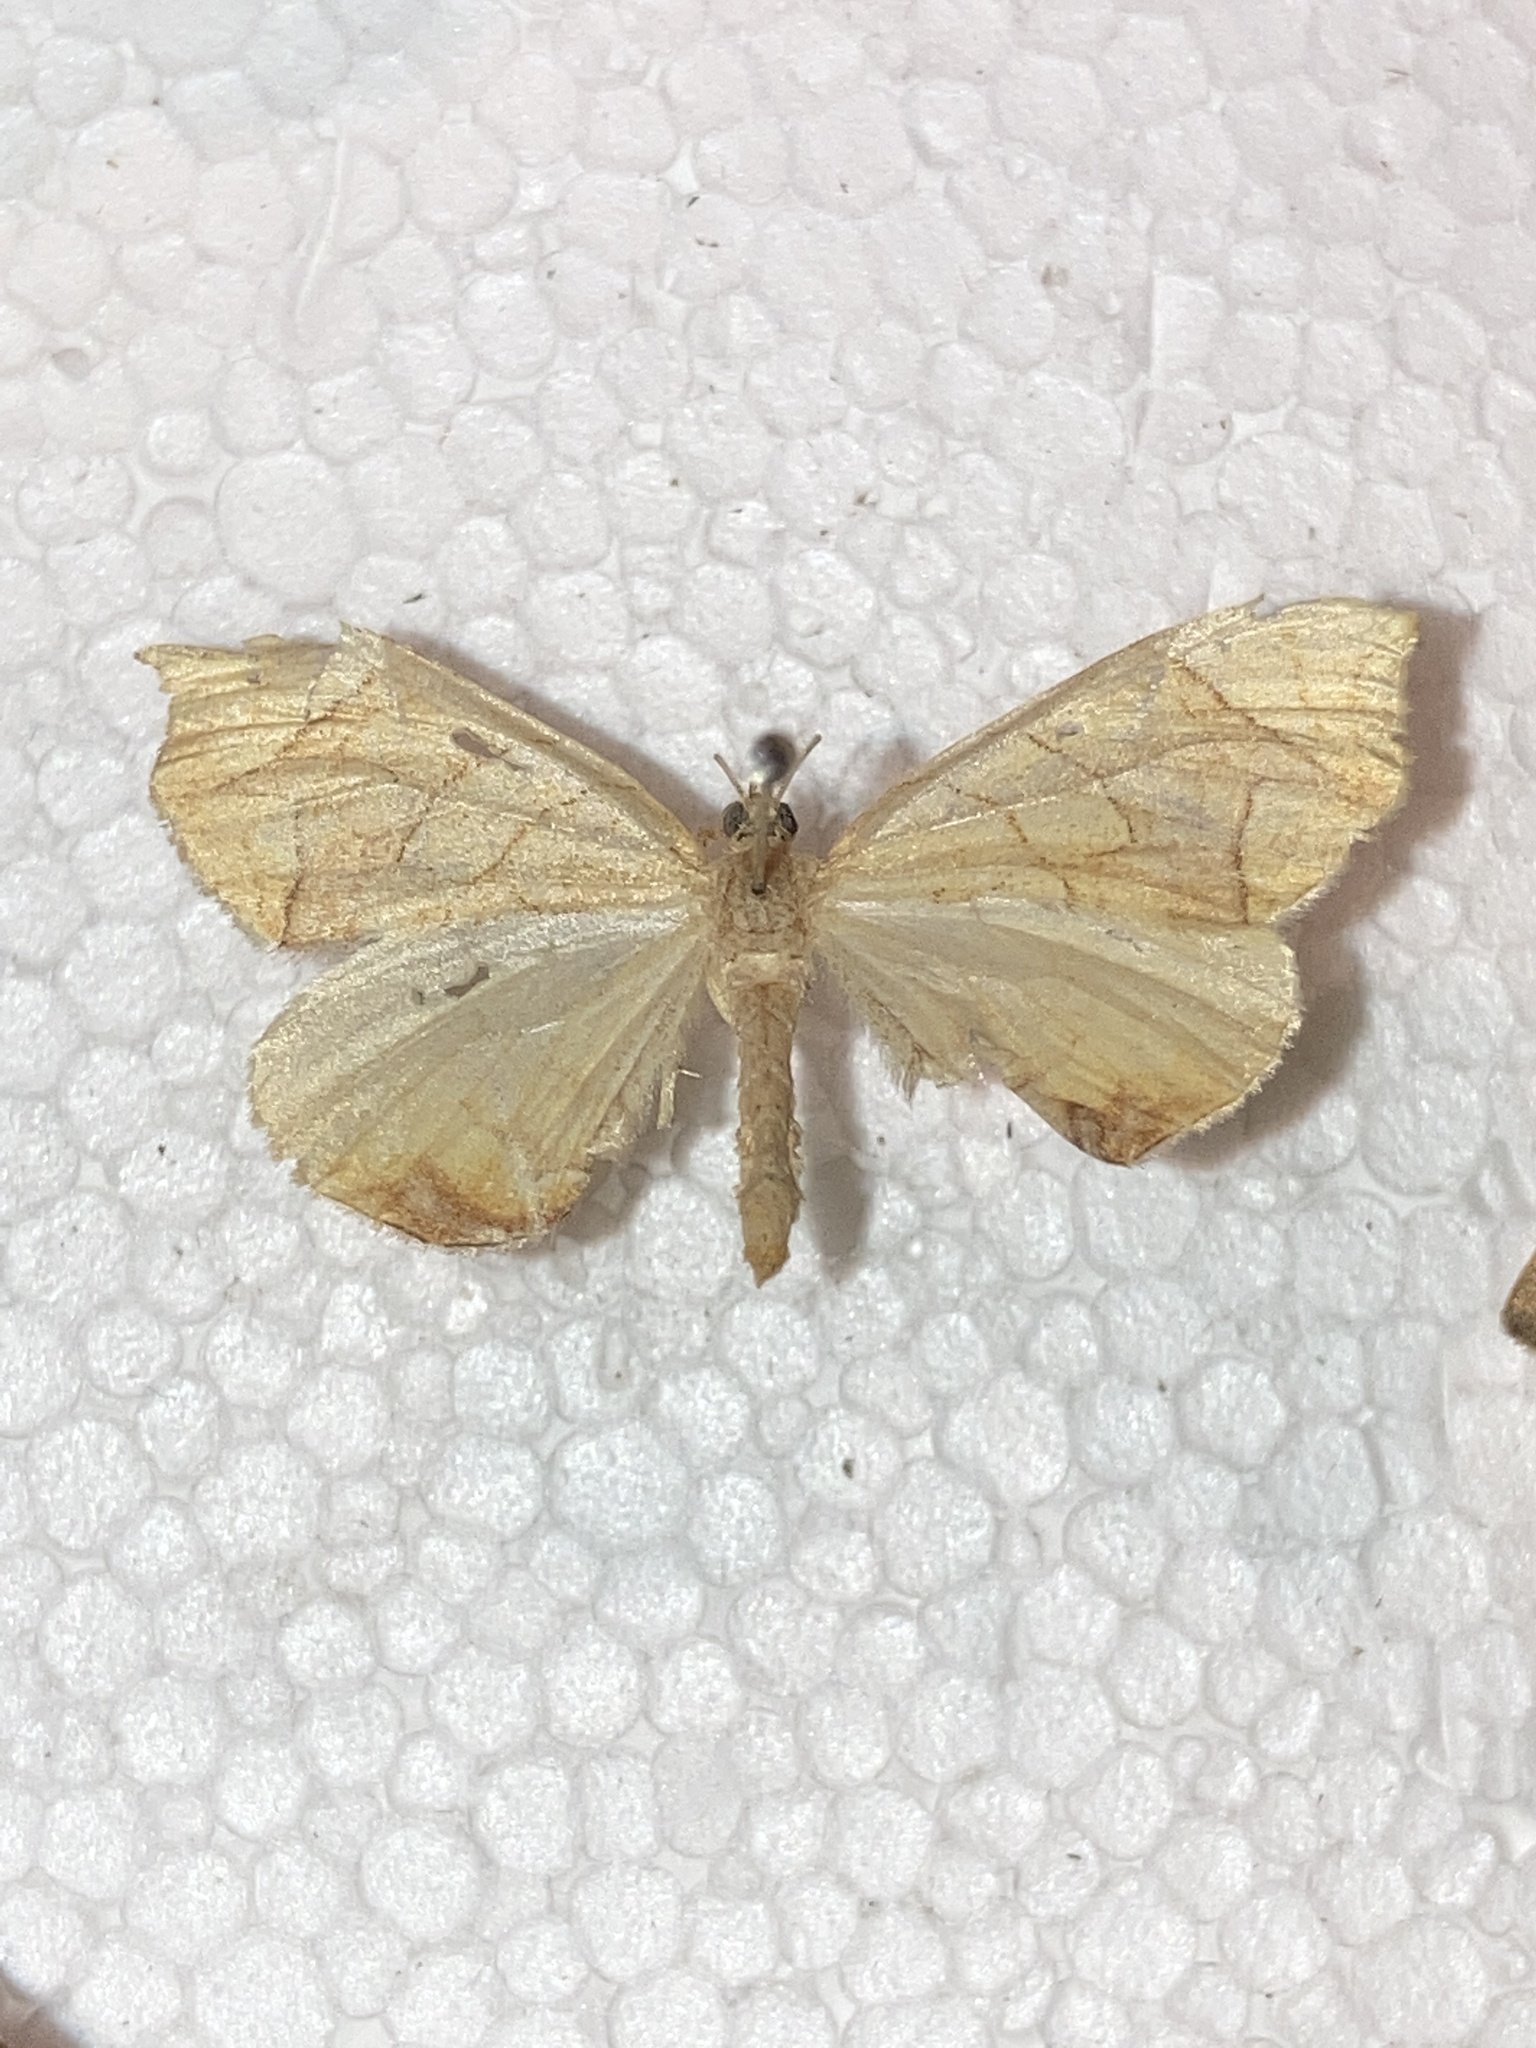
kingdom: Animalia
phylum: Arthropoda
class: Insecta
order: Lepidoptera
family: Geometridae
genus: Eulithis
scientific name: Eulithis
